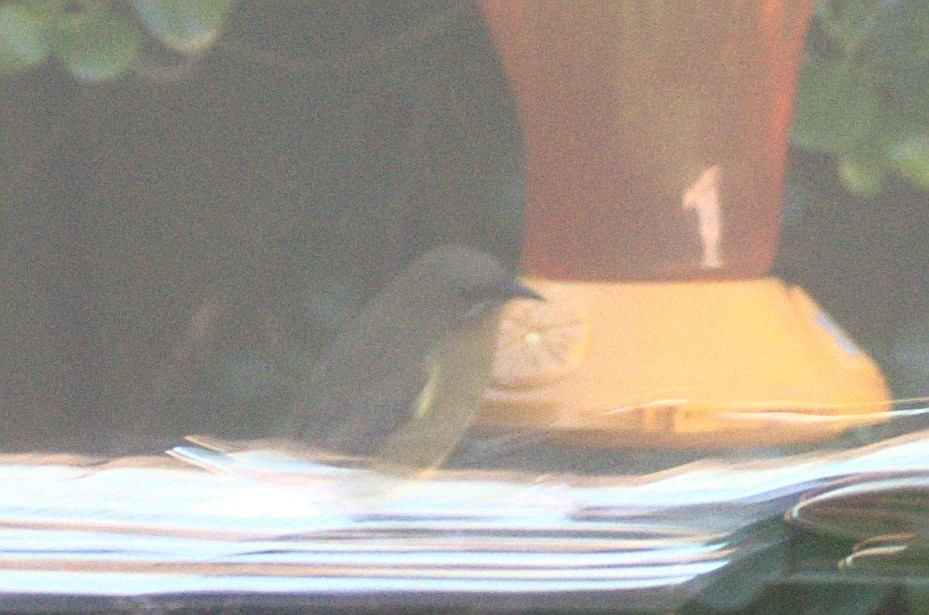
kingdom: Animalia
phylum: Chordata
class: Aves
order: Passeriformes
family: Meliphagidae
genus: Anthornis
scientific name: Anthornis melanura
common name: New zealand bellbird
